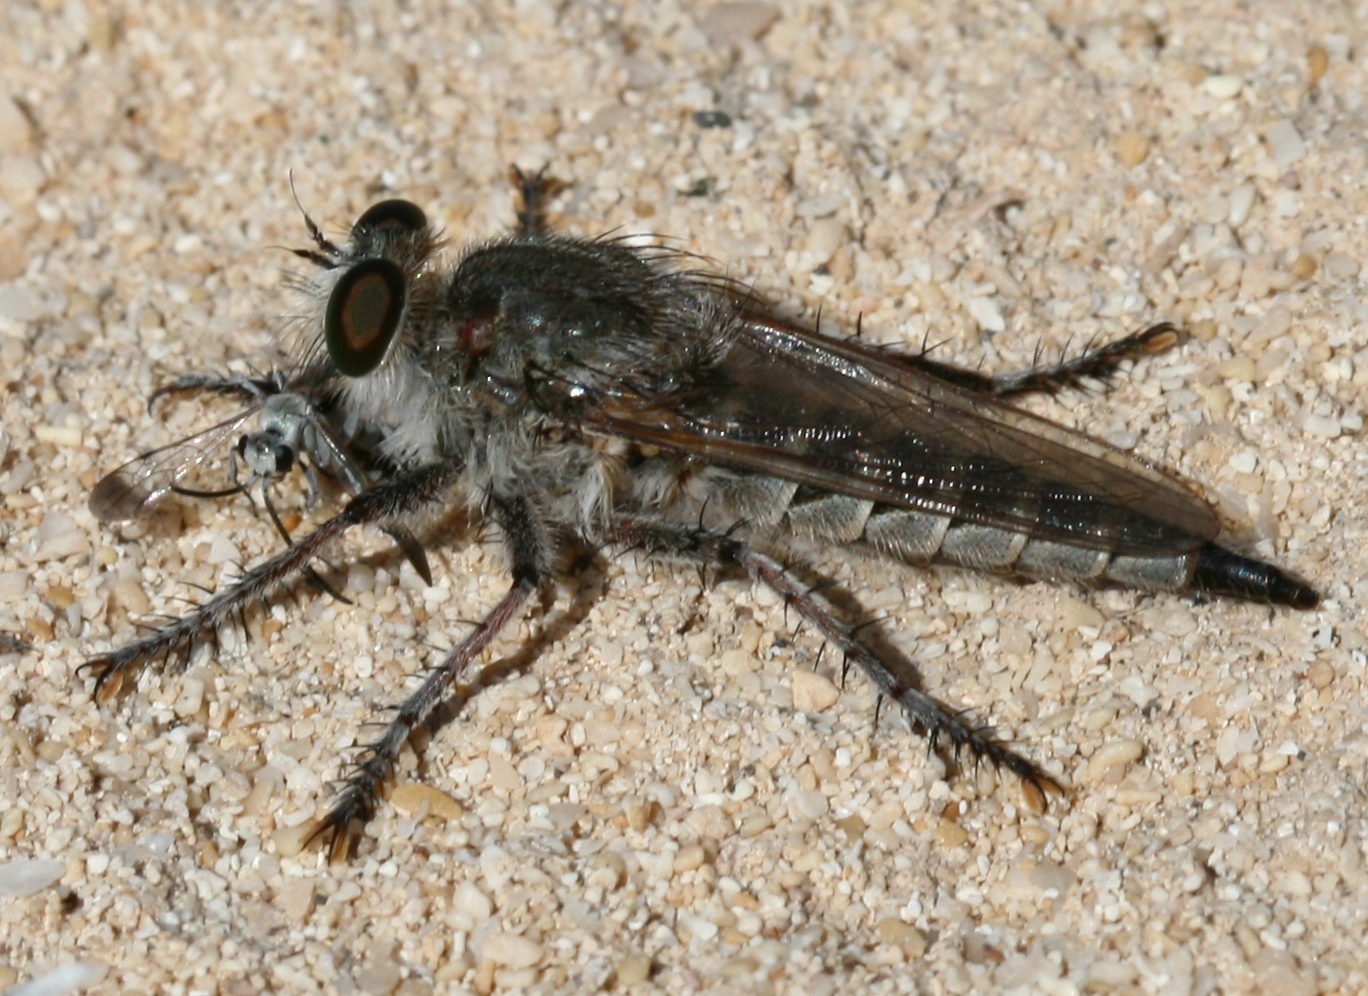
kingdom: Animalia
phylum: Arthropoda
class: Insecta
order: Diptera
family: Asilidae
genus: Promachus
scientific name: Promachus consanguineus
